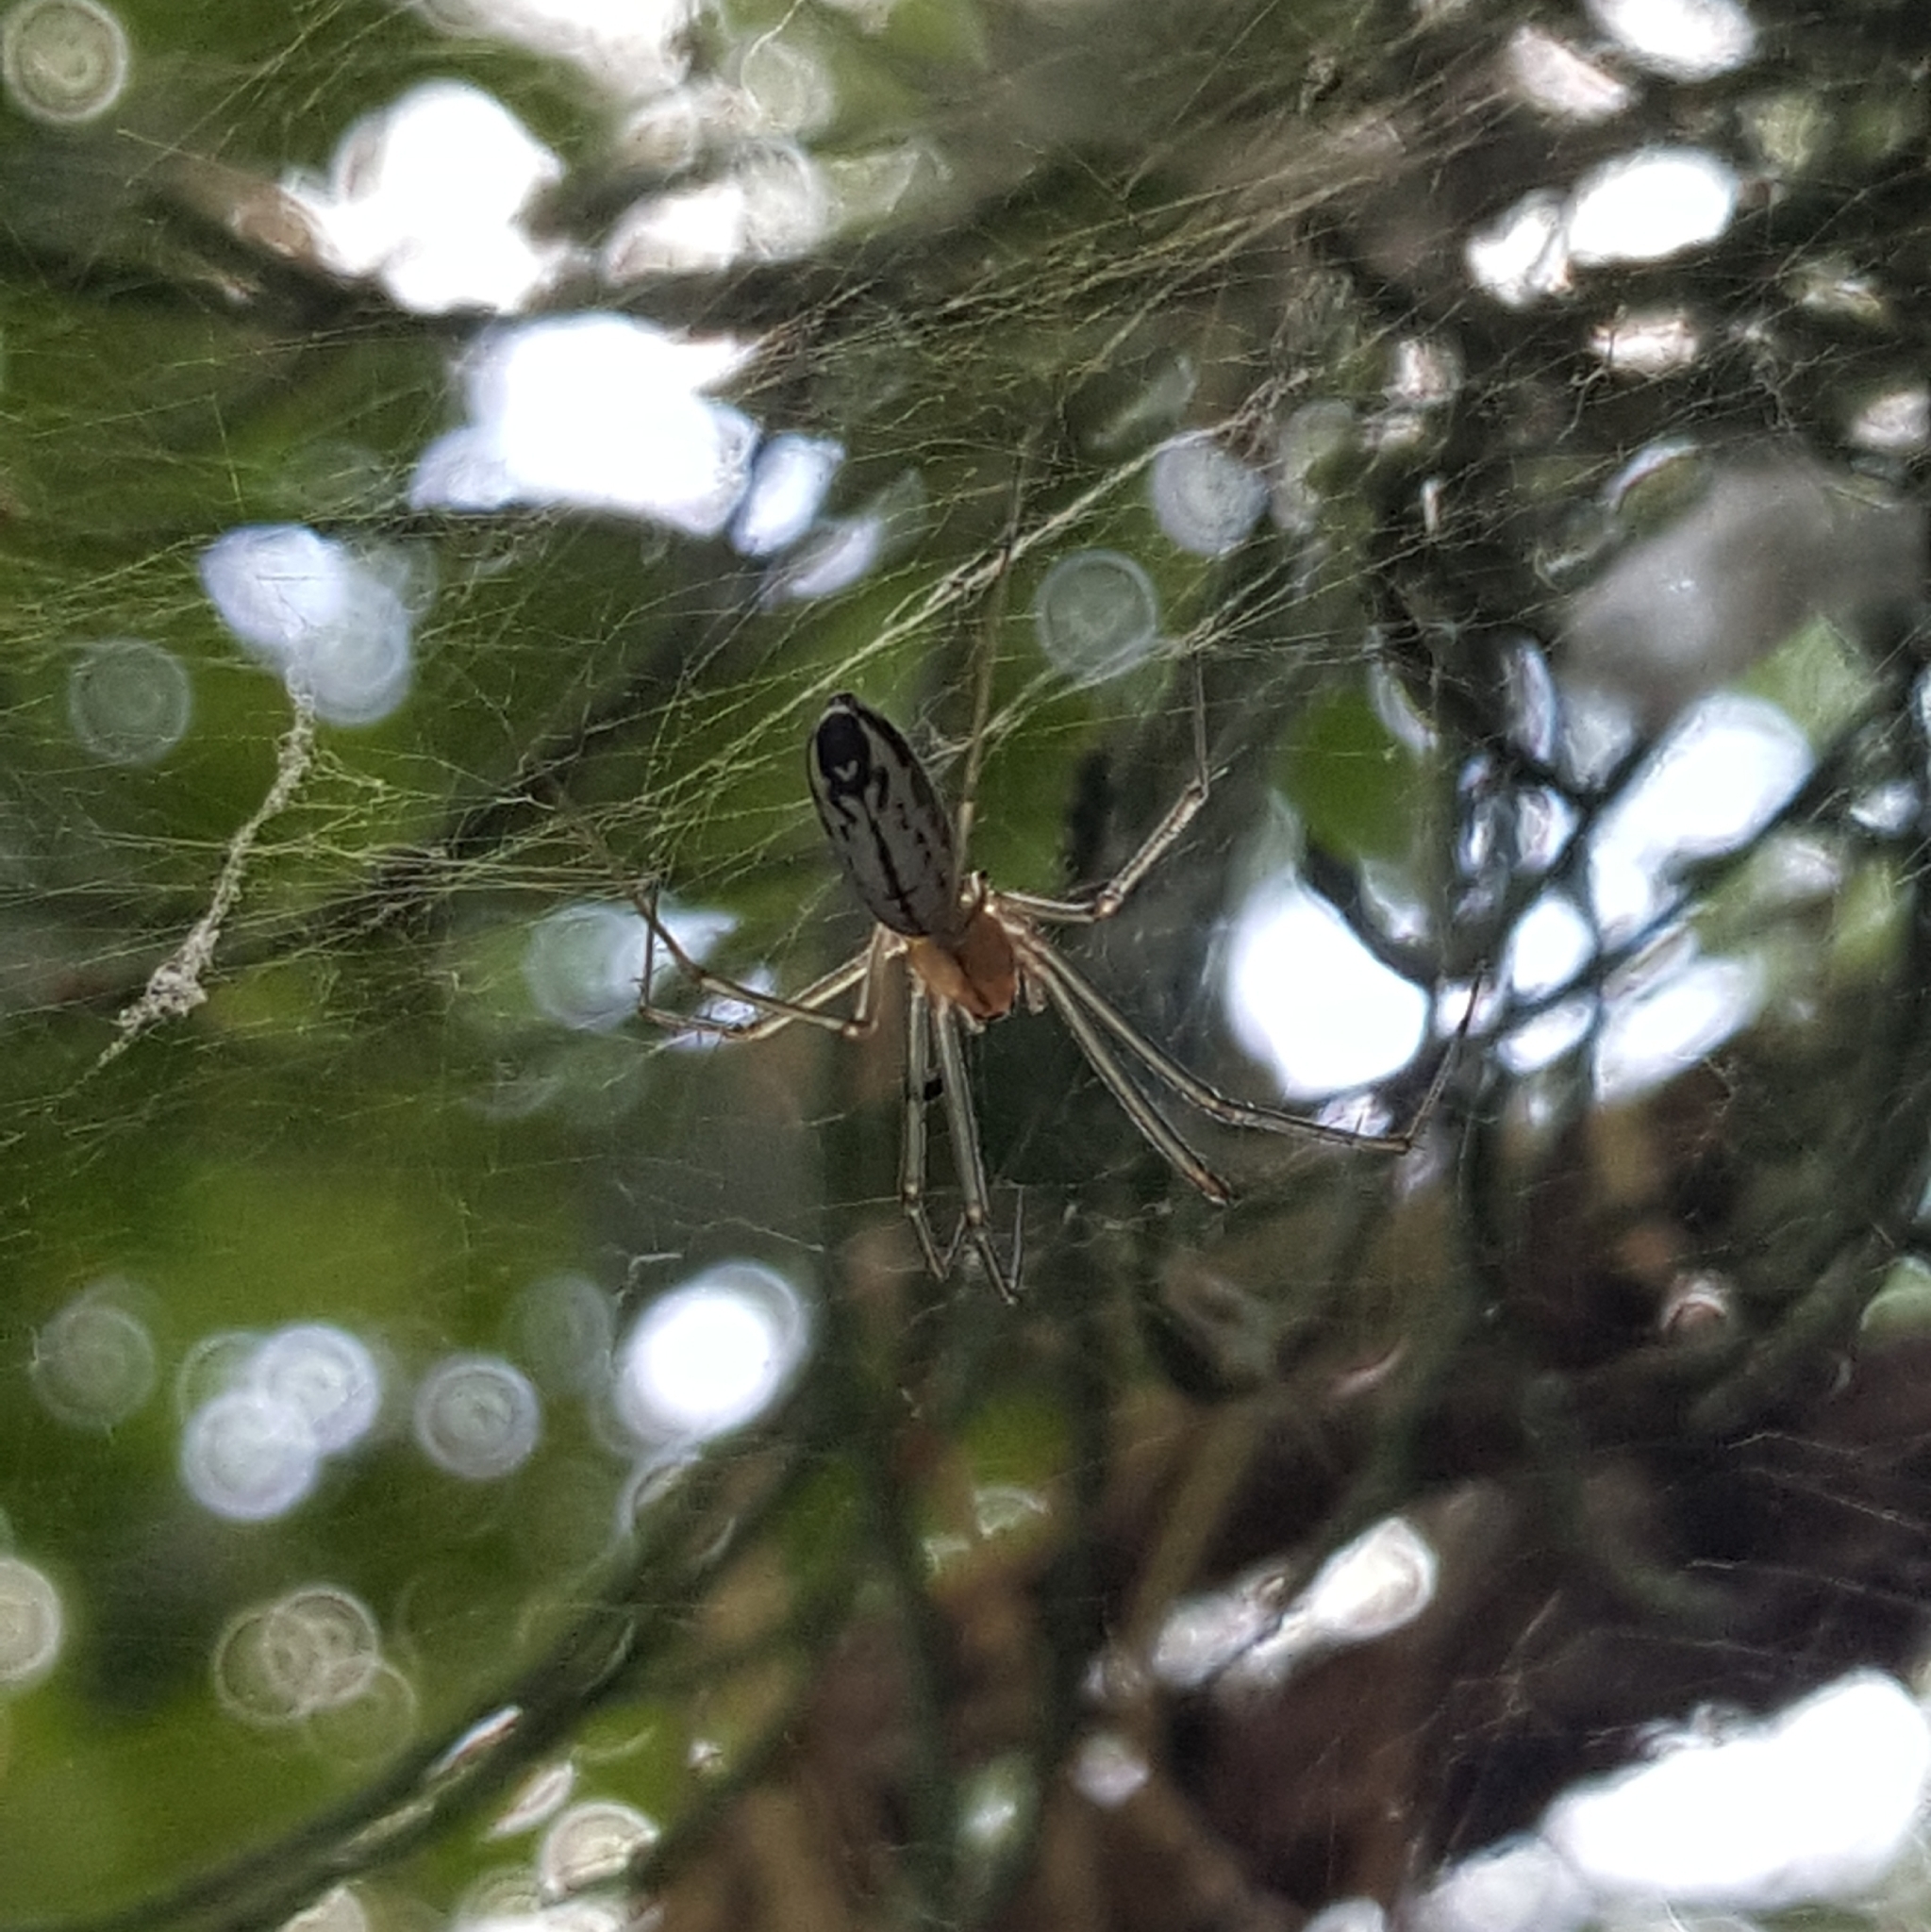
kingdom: Animalia
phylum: Arthropoda
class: Arachnida
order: Araneae
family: Linyphiidae
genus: Neriene
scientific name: Neriene litigiosa
